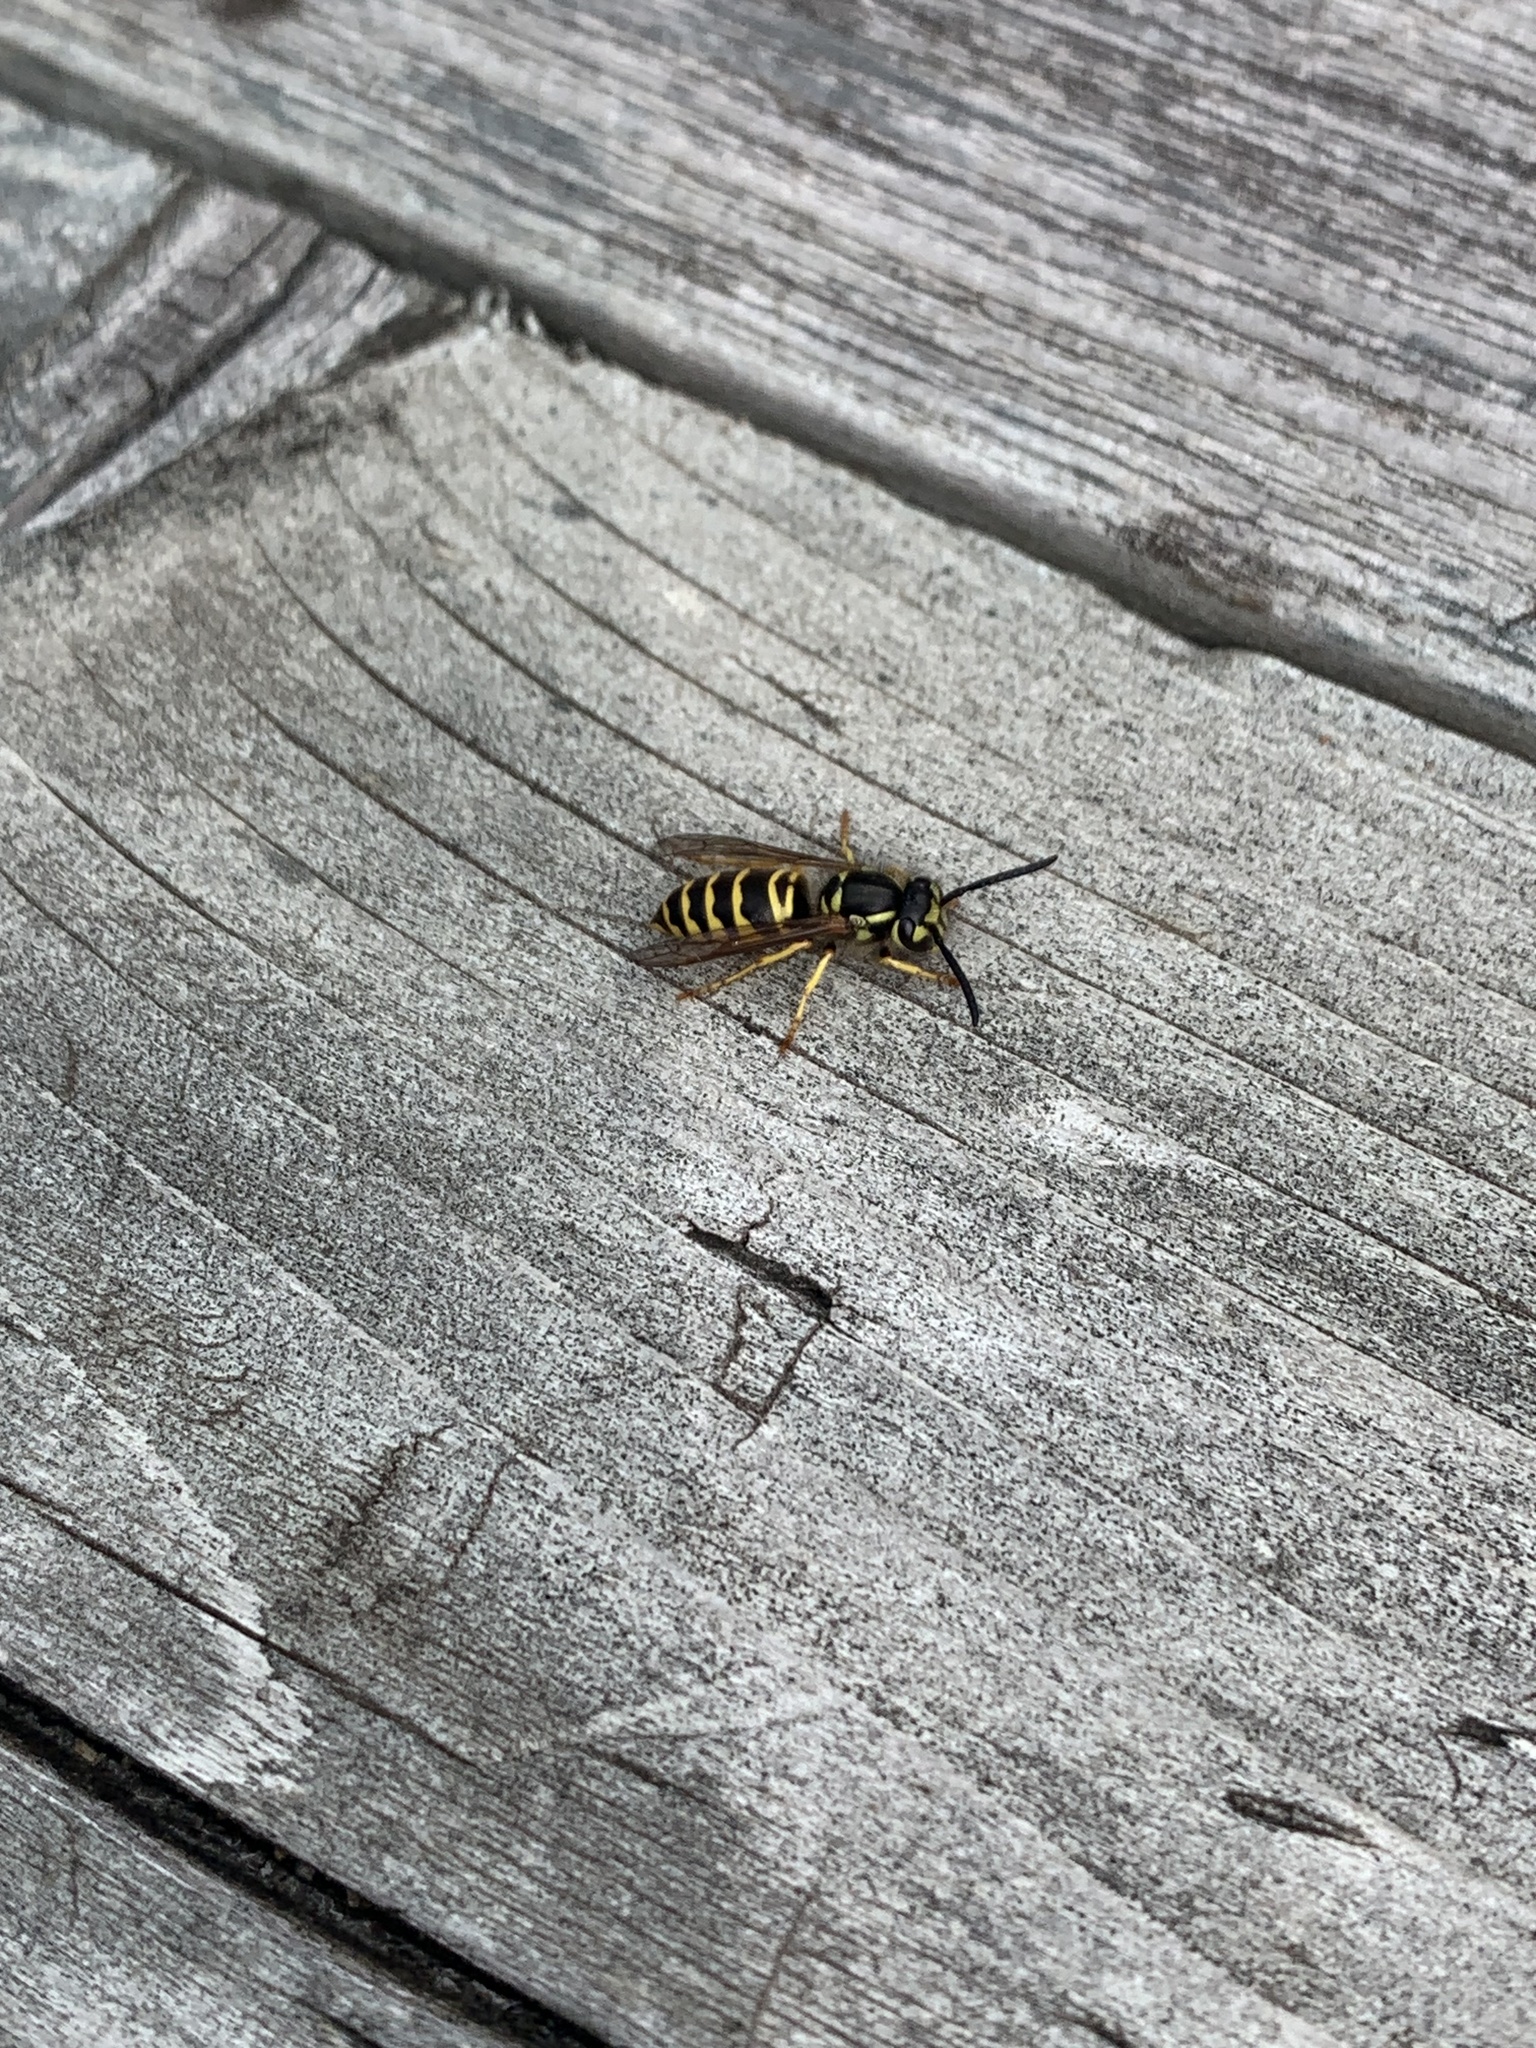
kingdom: Animalia
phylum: Arthropoda
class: Insecta
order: Hymenoptera
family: Vespidae
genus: Vespula
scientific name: Vespula maculifrons
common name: Eastern yellowjacket
